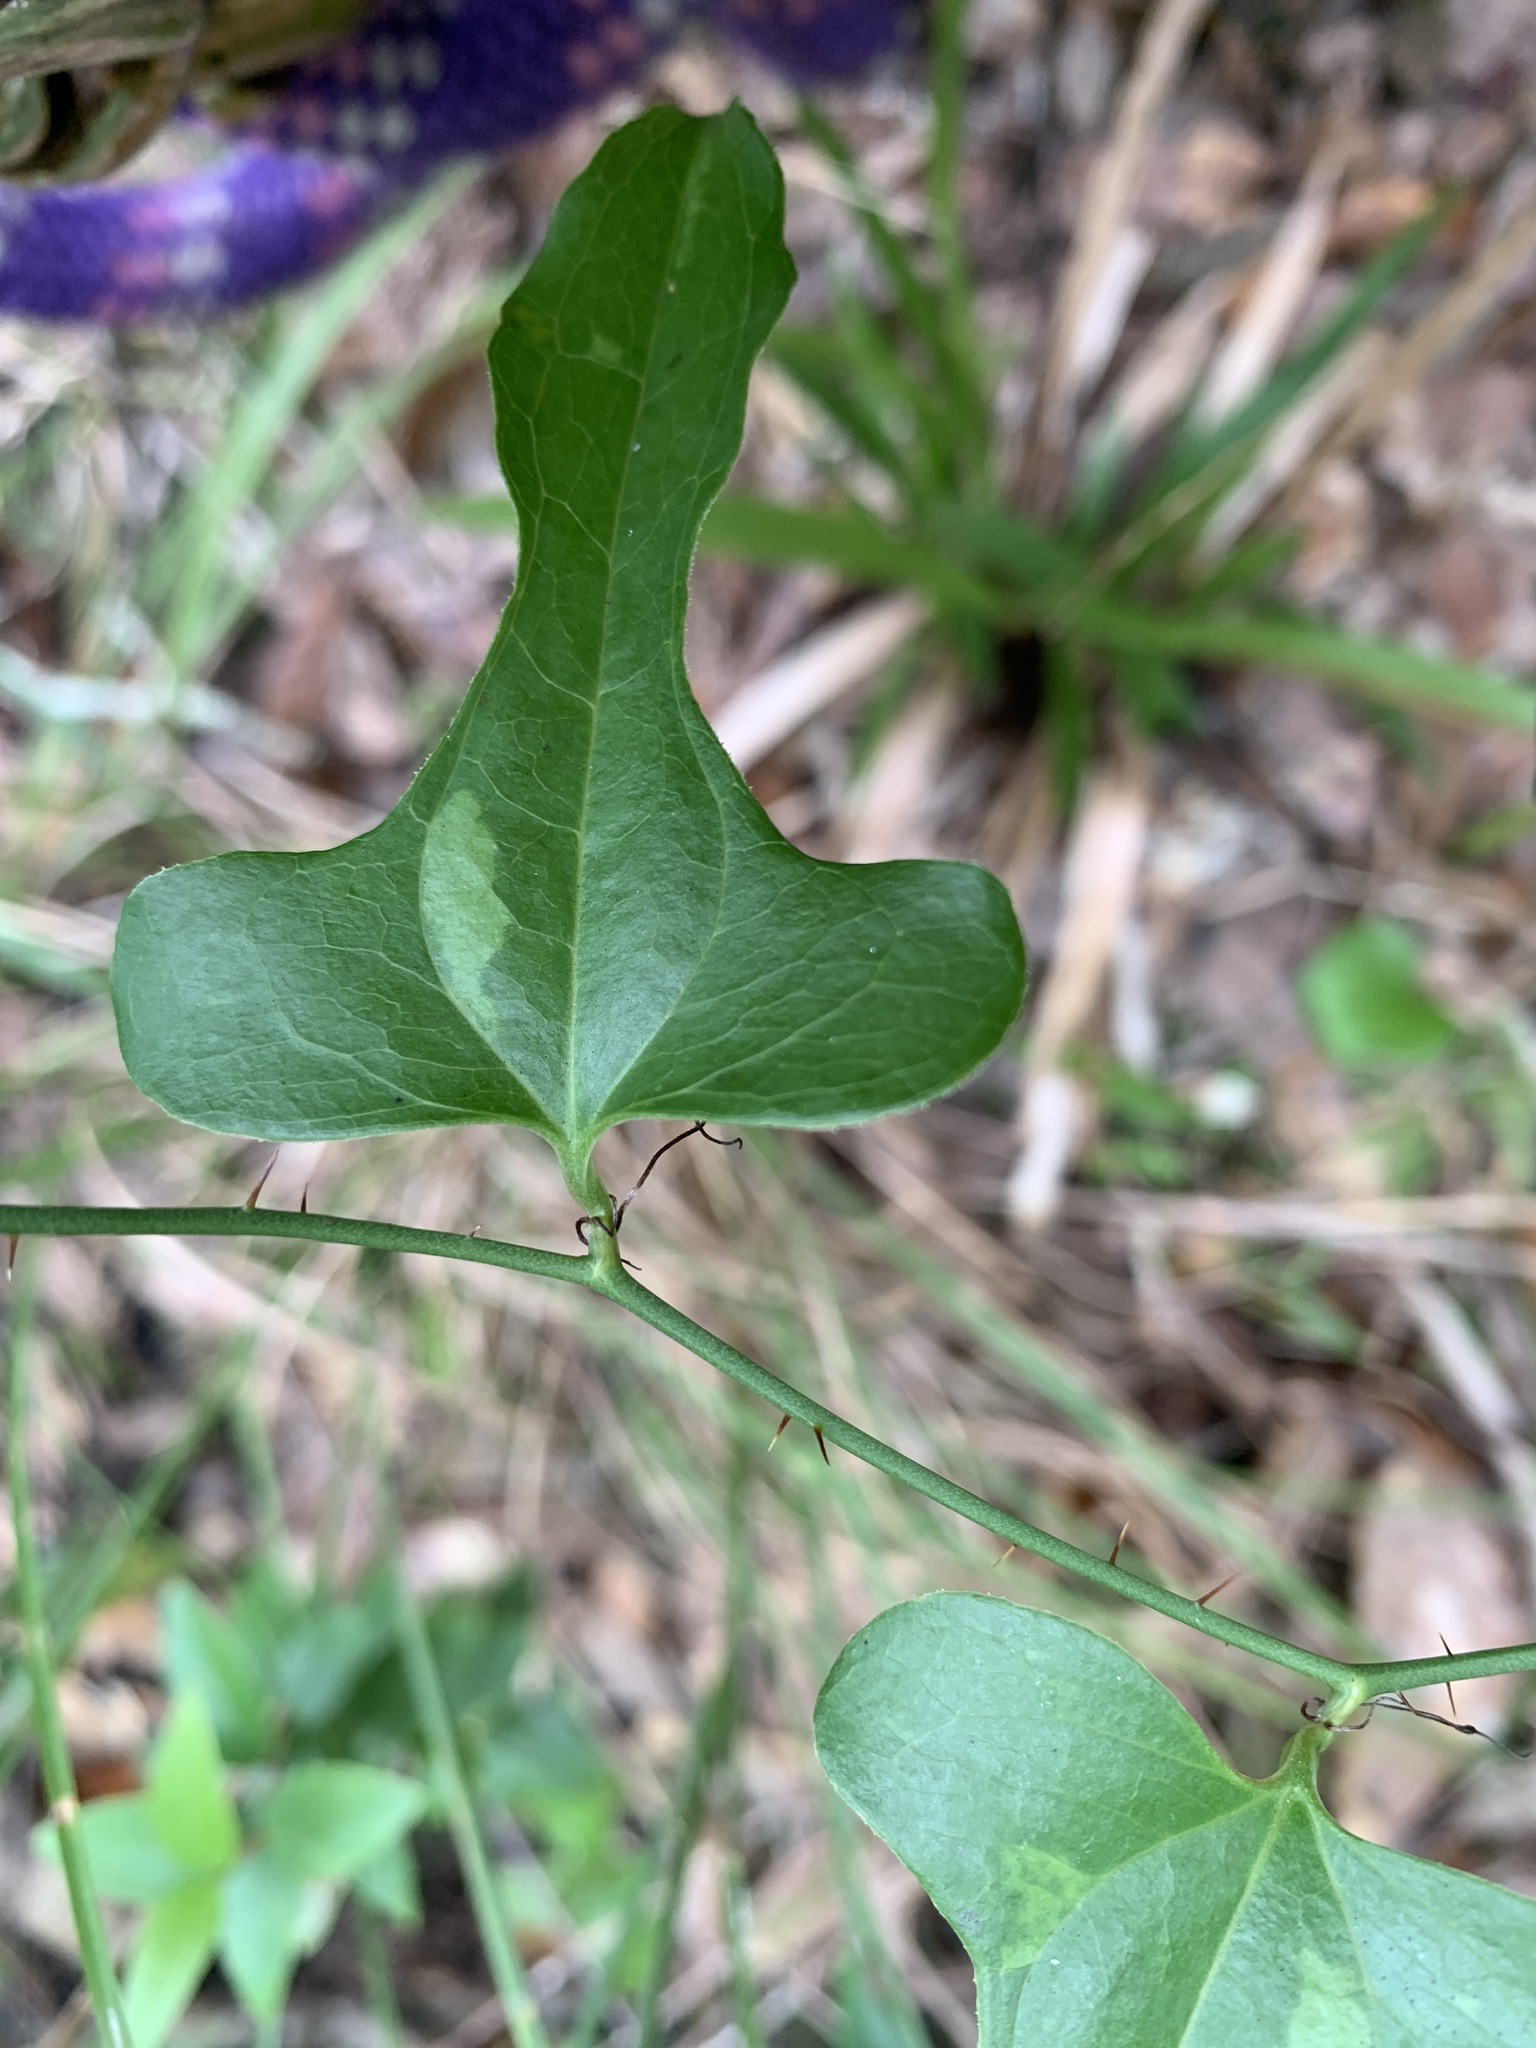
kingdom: Plantae
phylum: Tracheophyta
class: Liliopsida
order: Liliales
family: Smilacaceae
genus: Smilax
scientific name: Smilax bona-nox
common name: Catbrier
